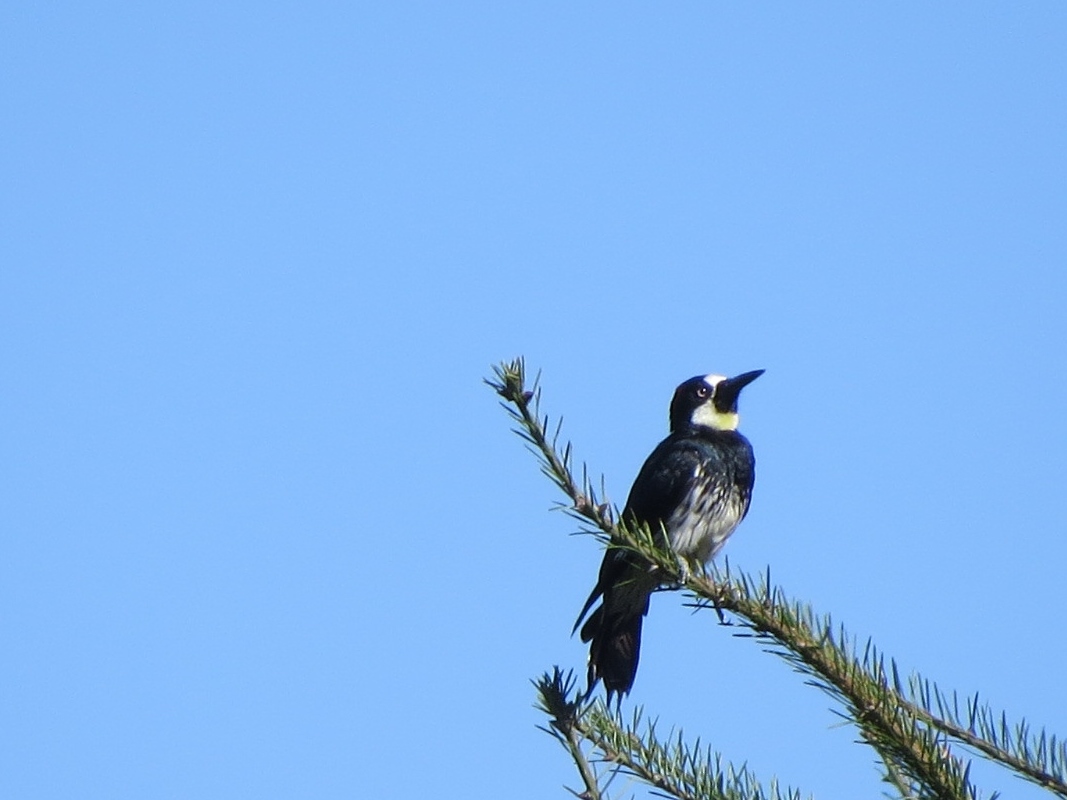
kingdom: Animalia
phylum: Chordata
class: Aves
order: Piciformes
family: Picidae
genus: Melanerpes
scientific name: Melanerpes formicivorus
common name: Acorn woodpecker
